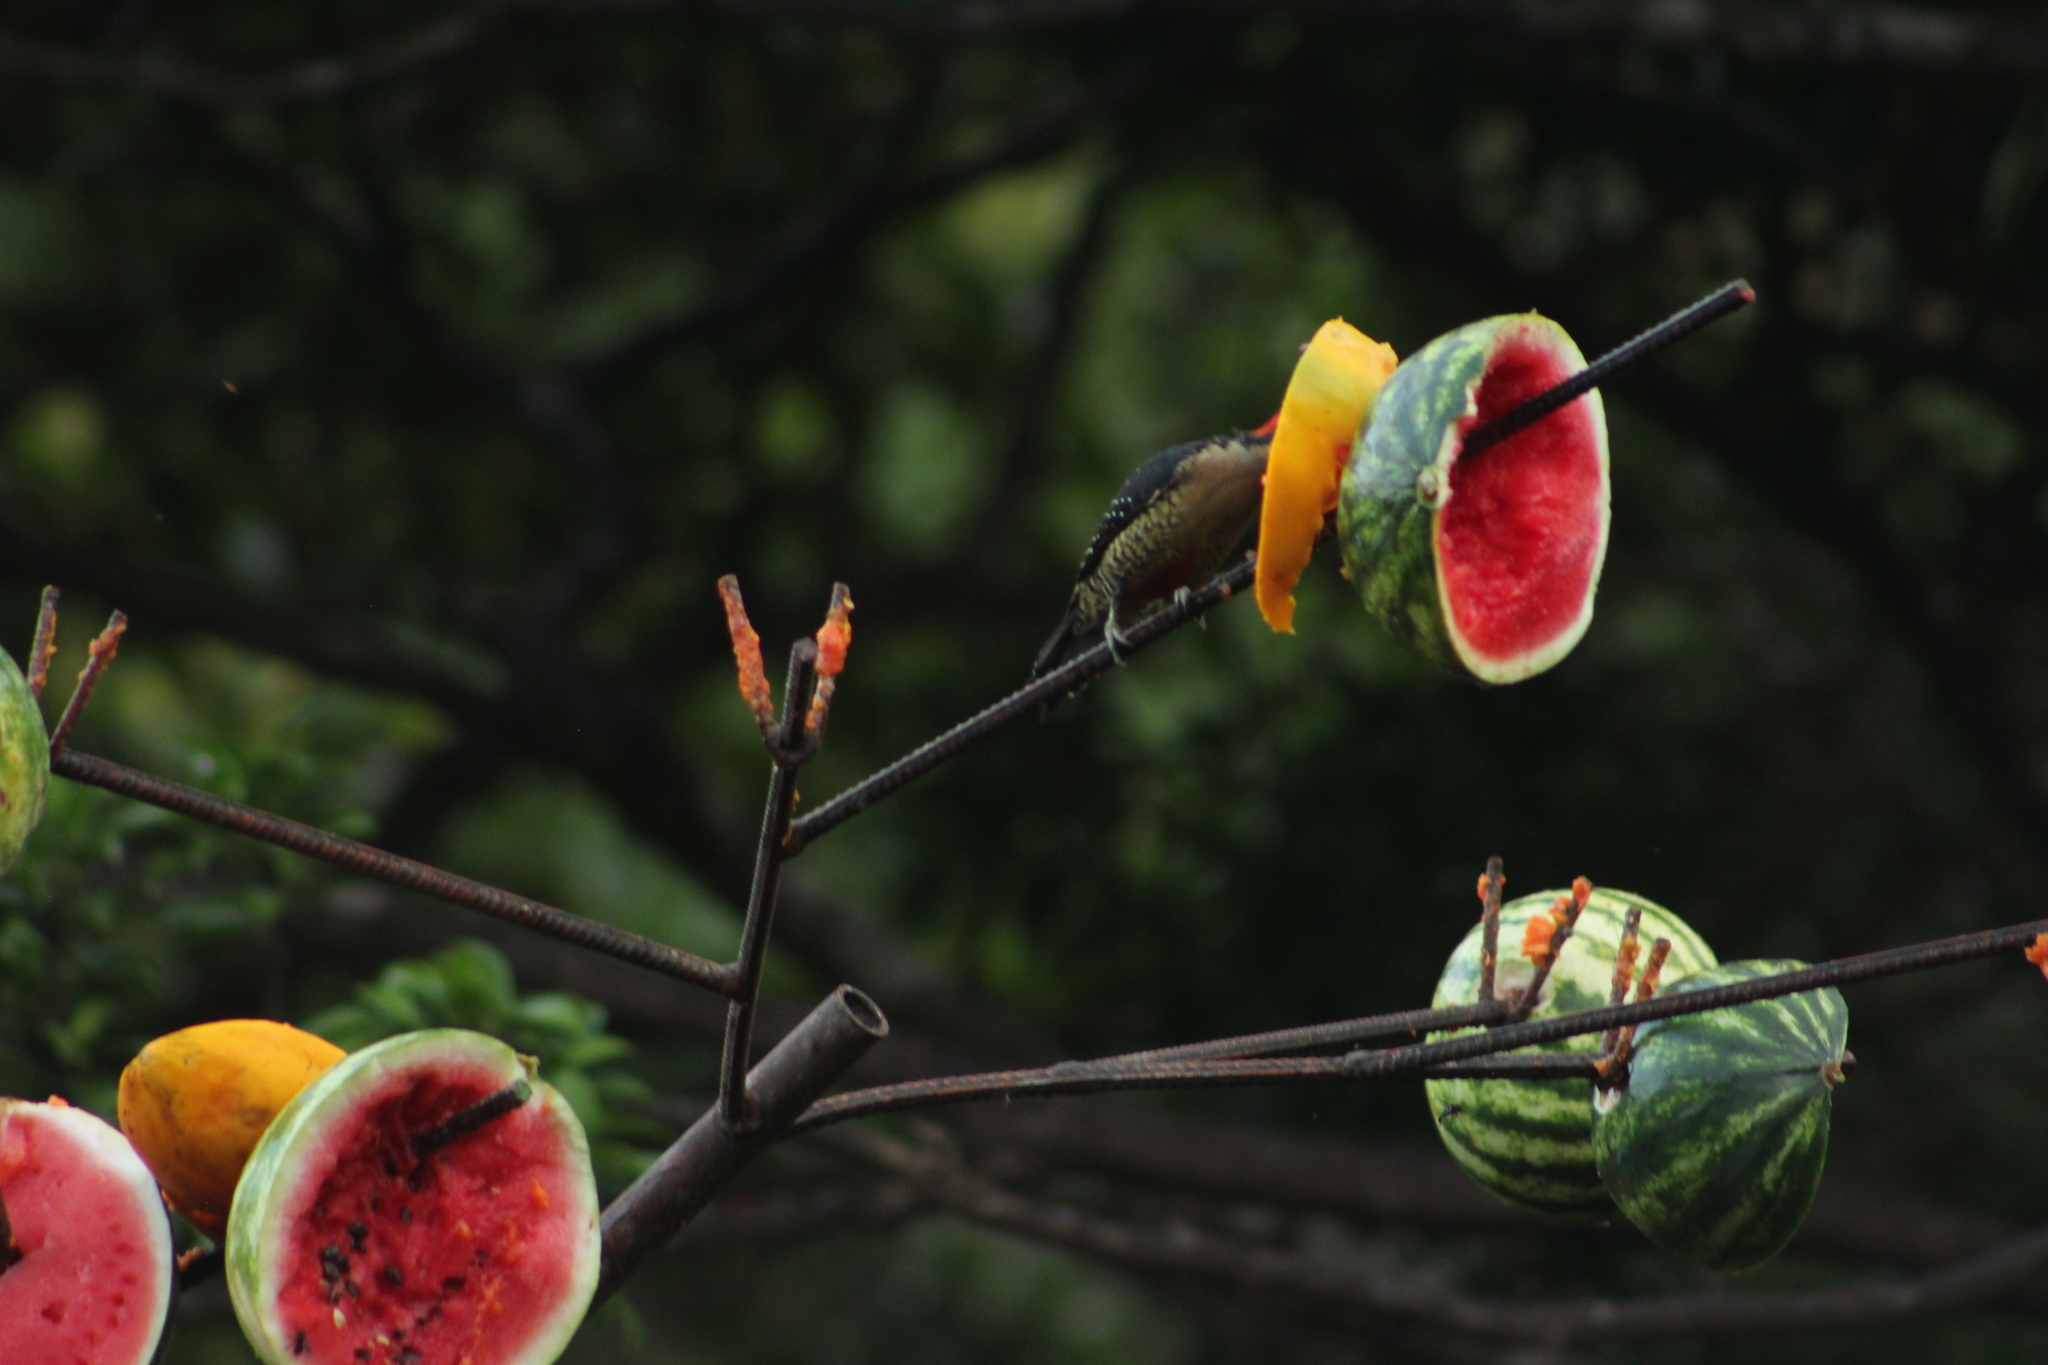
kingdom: Animalia
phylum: Chordata
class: Aves
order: Piciformes
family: Picidae
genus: Melanerpes
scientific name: Melanerpes pucherani
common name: Black-cheeked woodpecker
